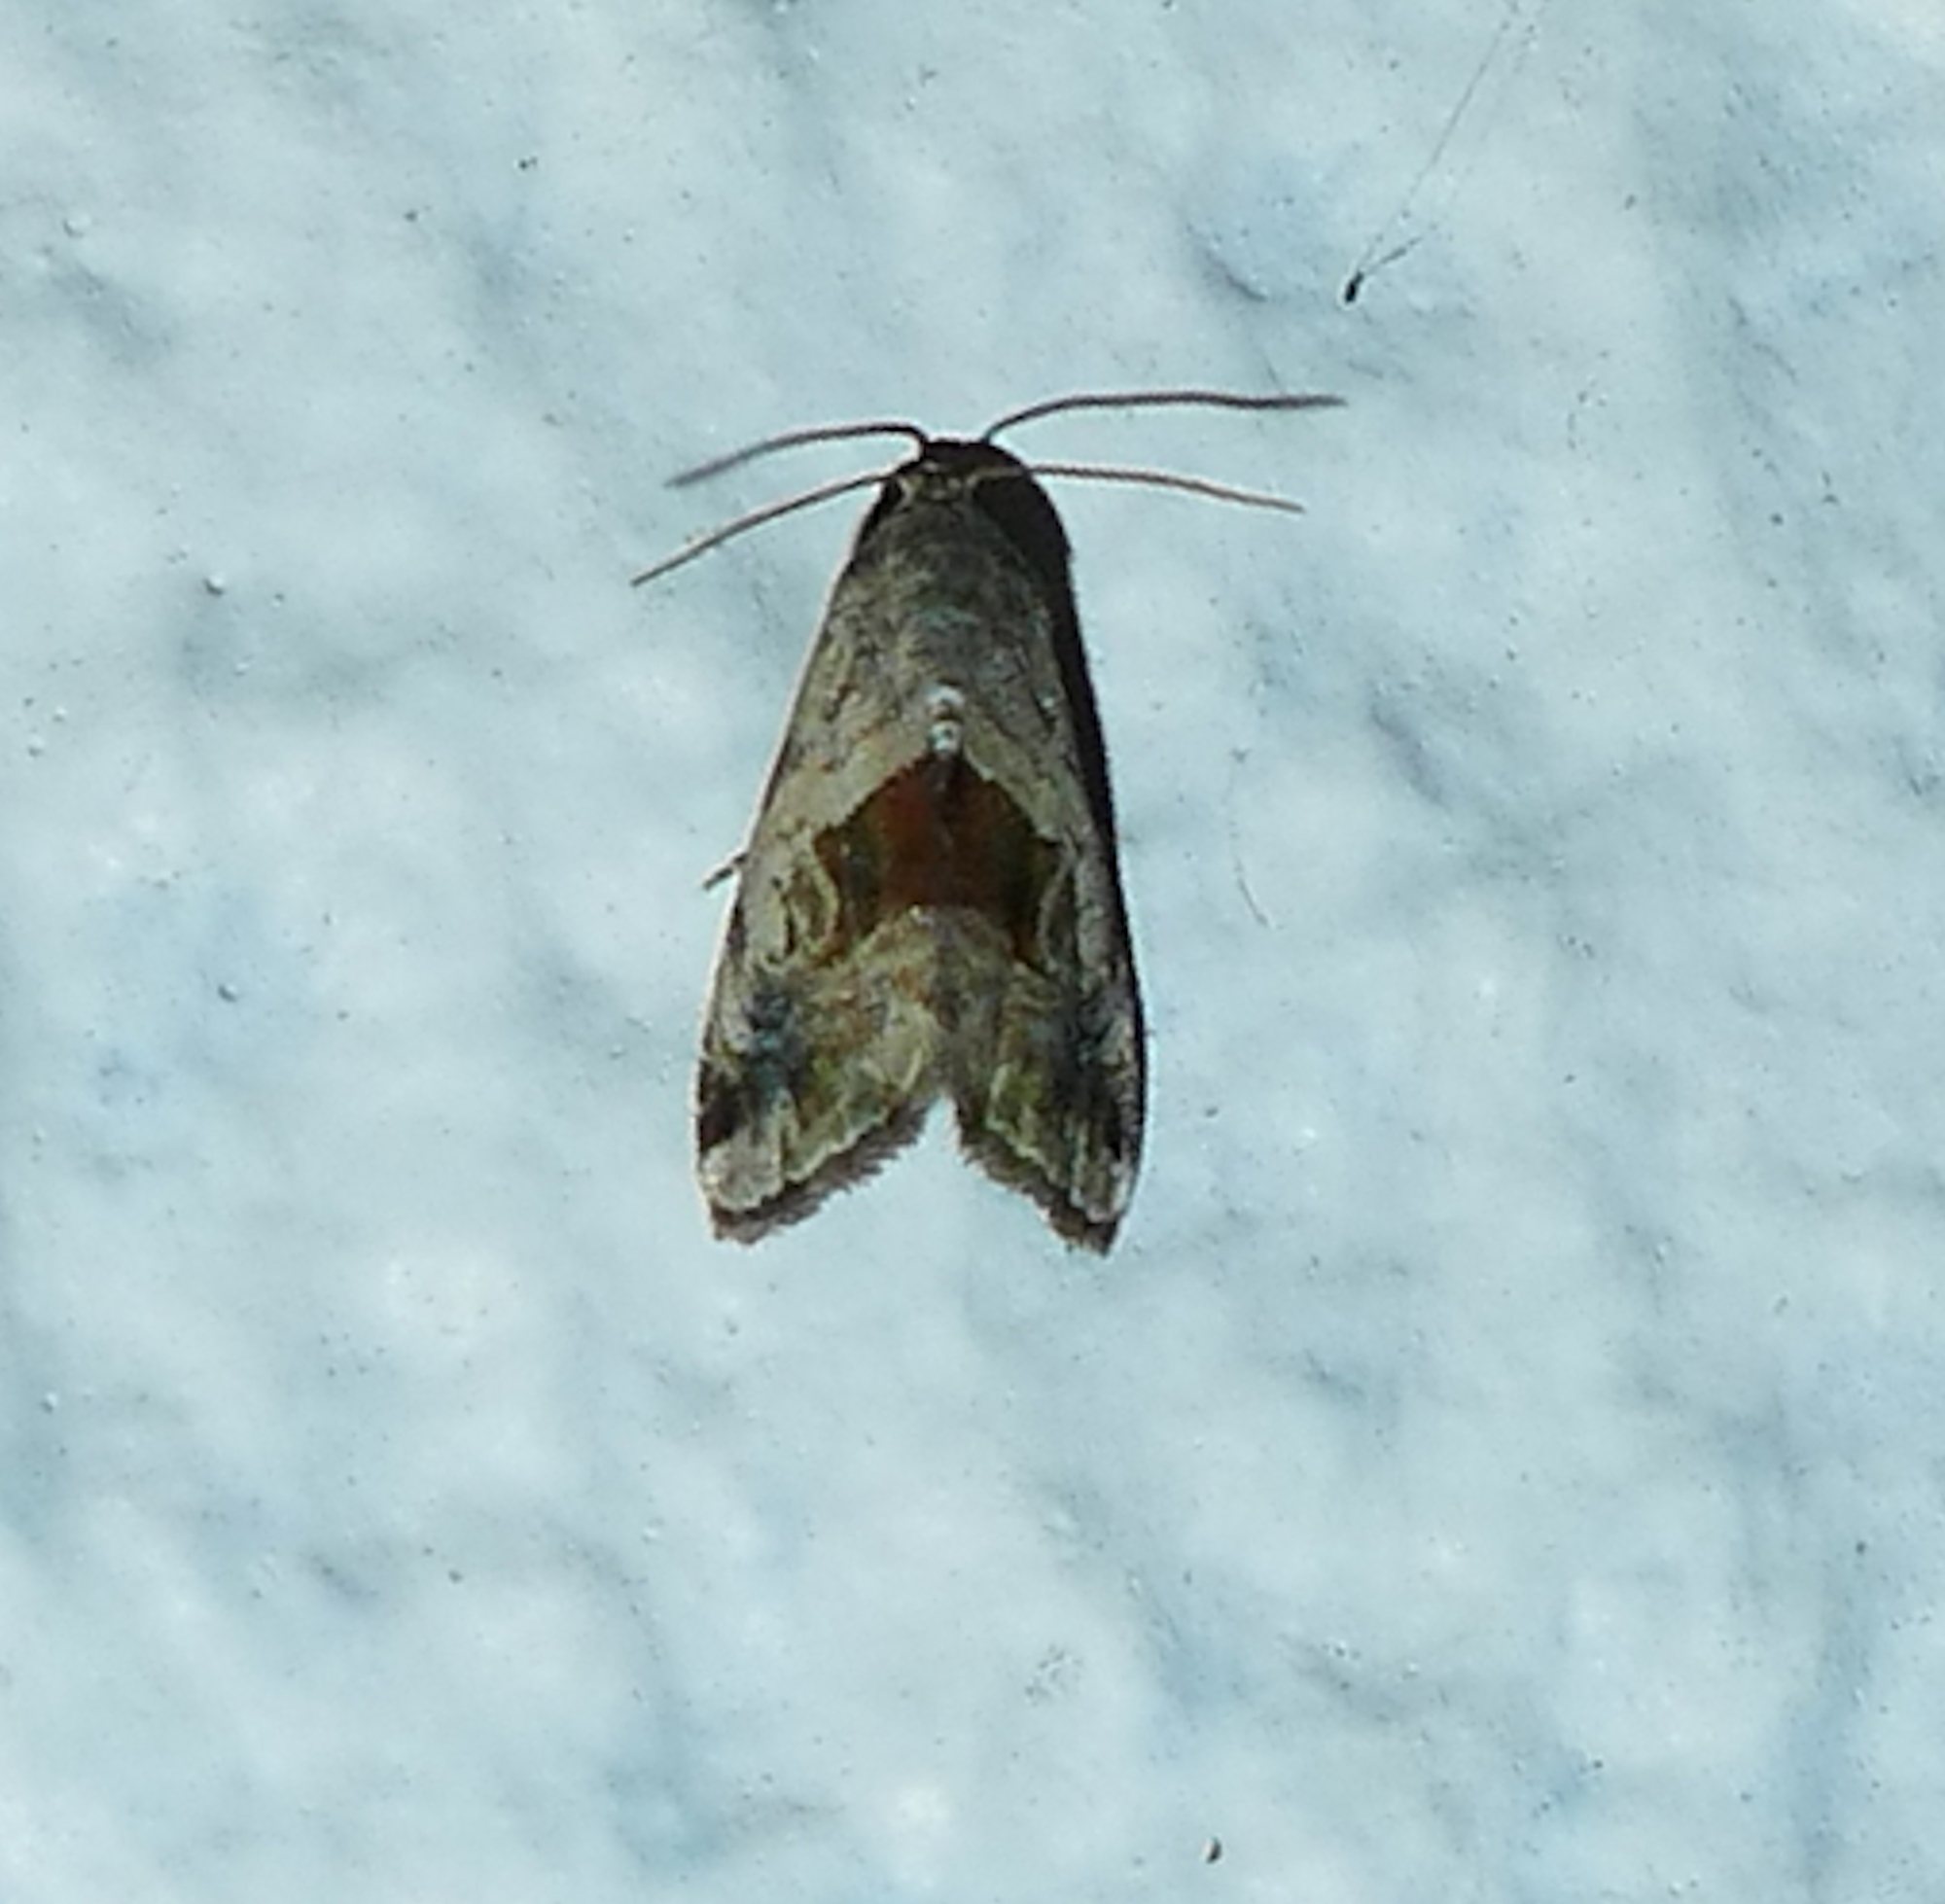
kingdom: Animalia
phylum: Arthropoda
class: Insecta
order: Lepidoptera
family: Noctuidae
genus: Tripudia
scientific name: Tripudia quadrifera
